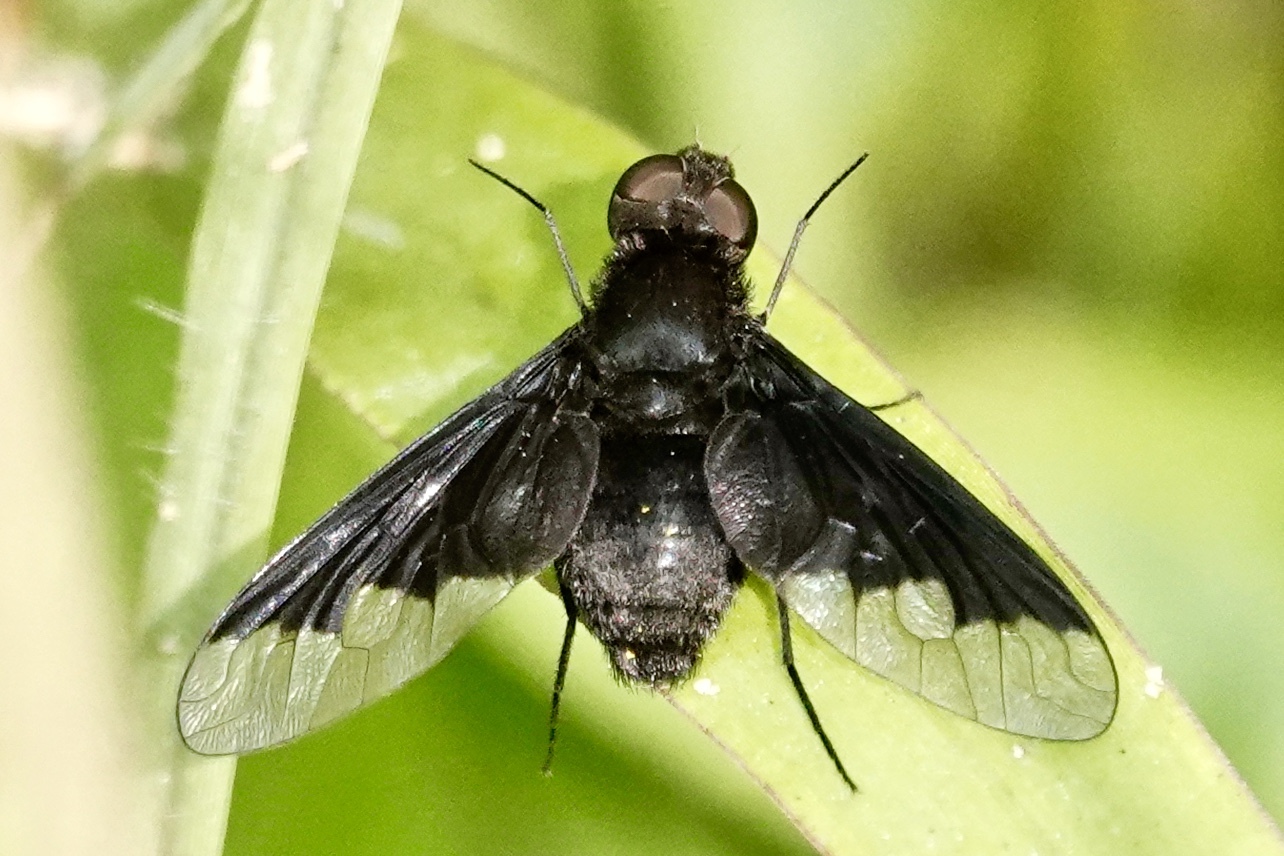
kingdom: Animalia
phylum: Arthropoda
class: Insecta
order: Diptera
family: Bombyliidae
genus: Anthrax
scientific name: Anthrax analis
